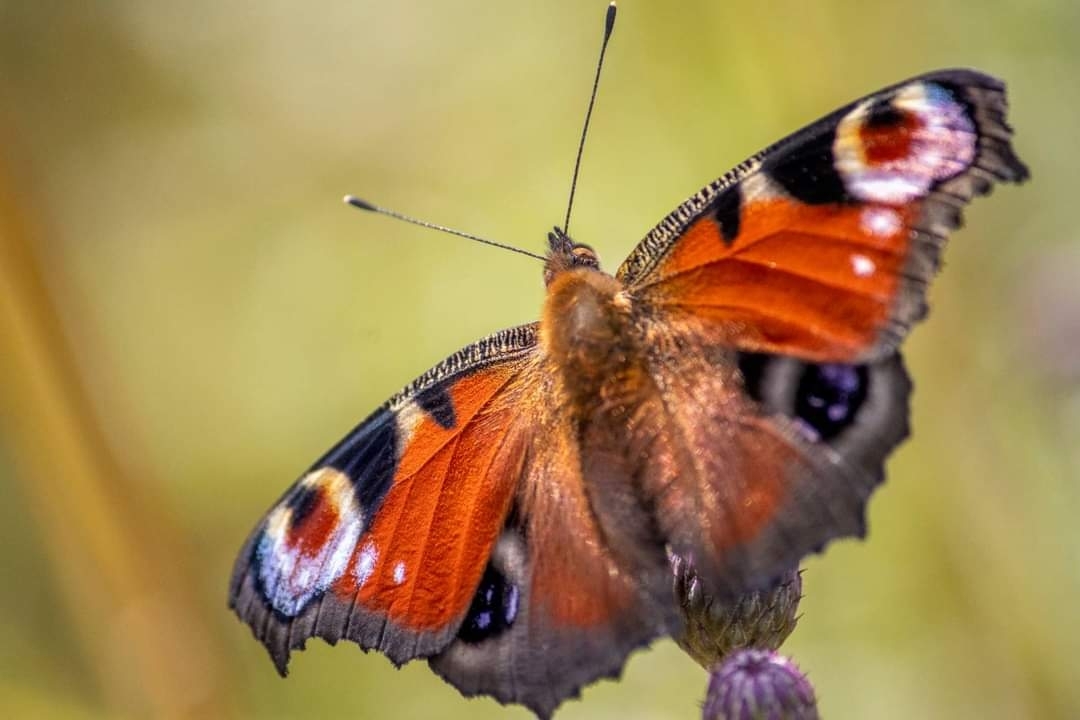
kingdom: Animalia
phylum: Arthropoda
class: Insecta
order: Lepidoptera
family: Nymphalidae
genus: Aglais
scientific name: Aglais io
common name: Peacock
